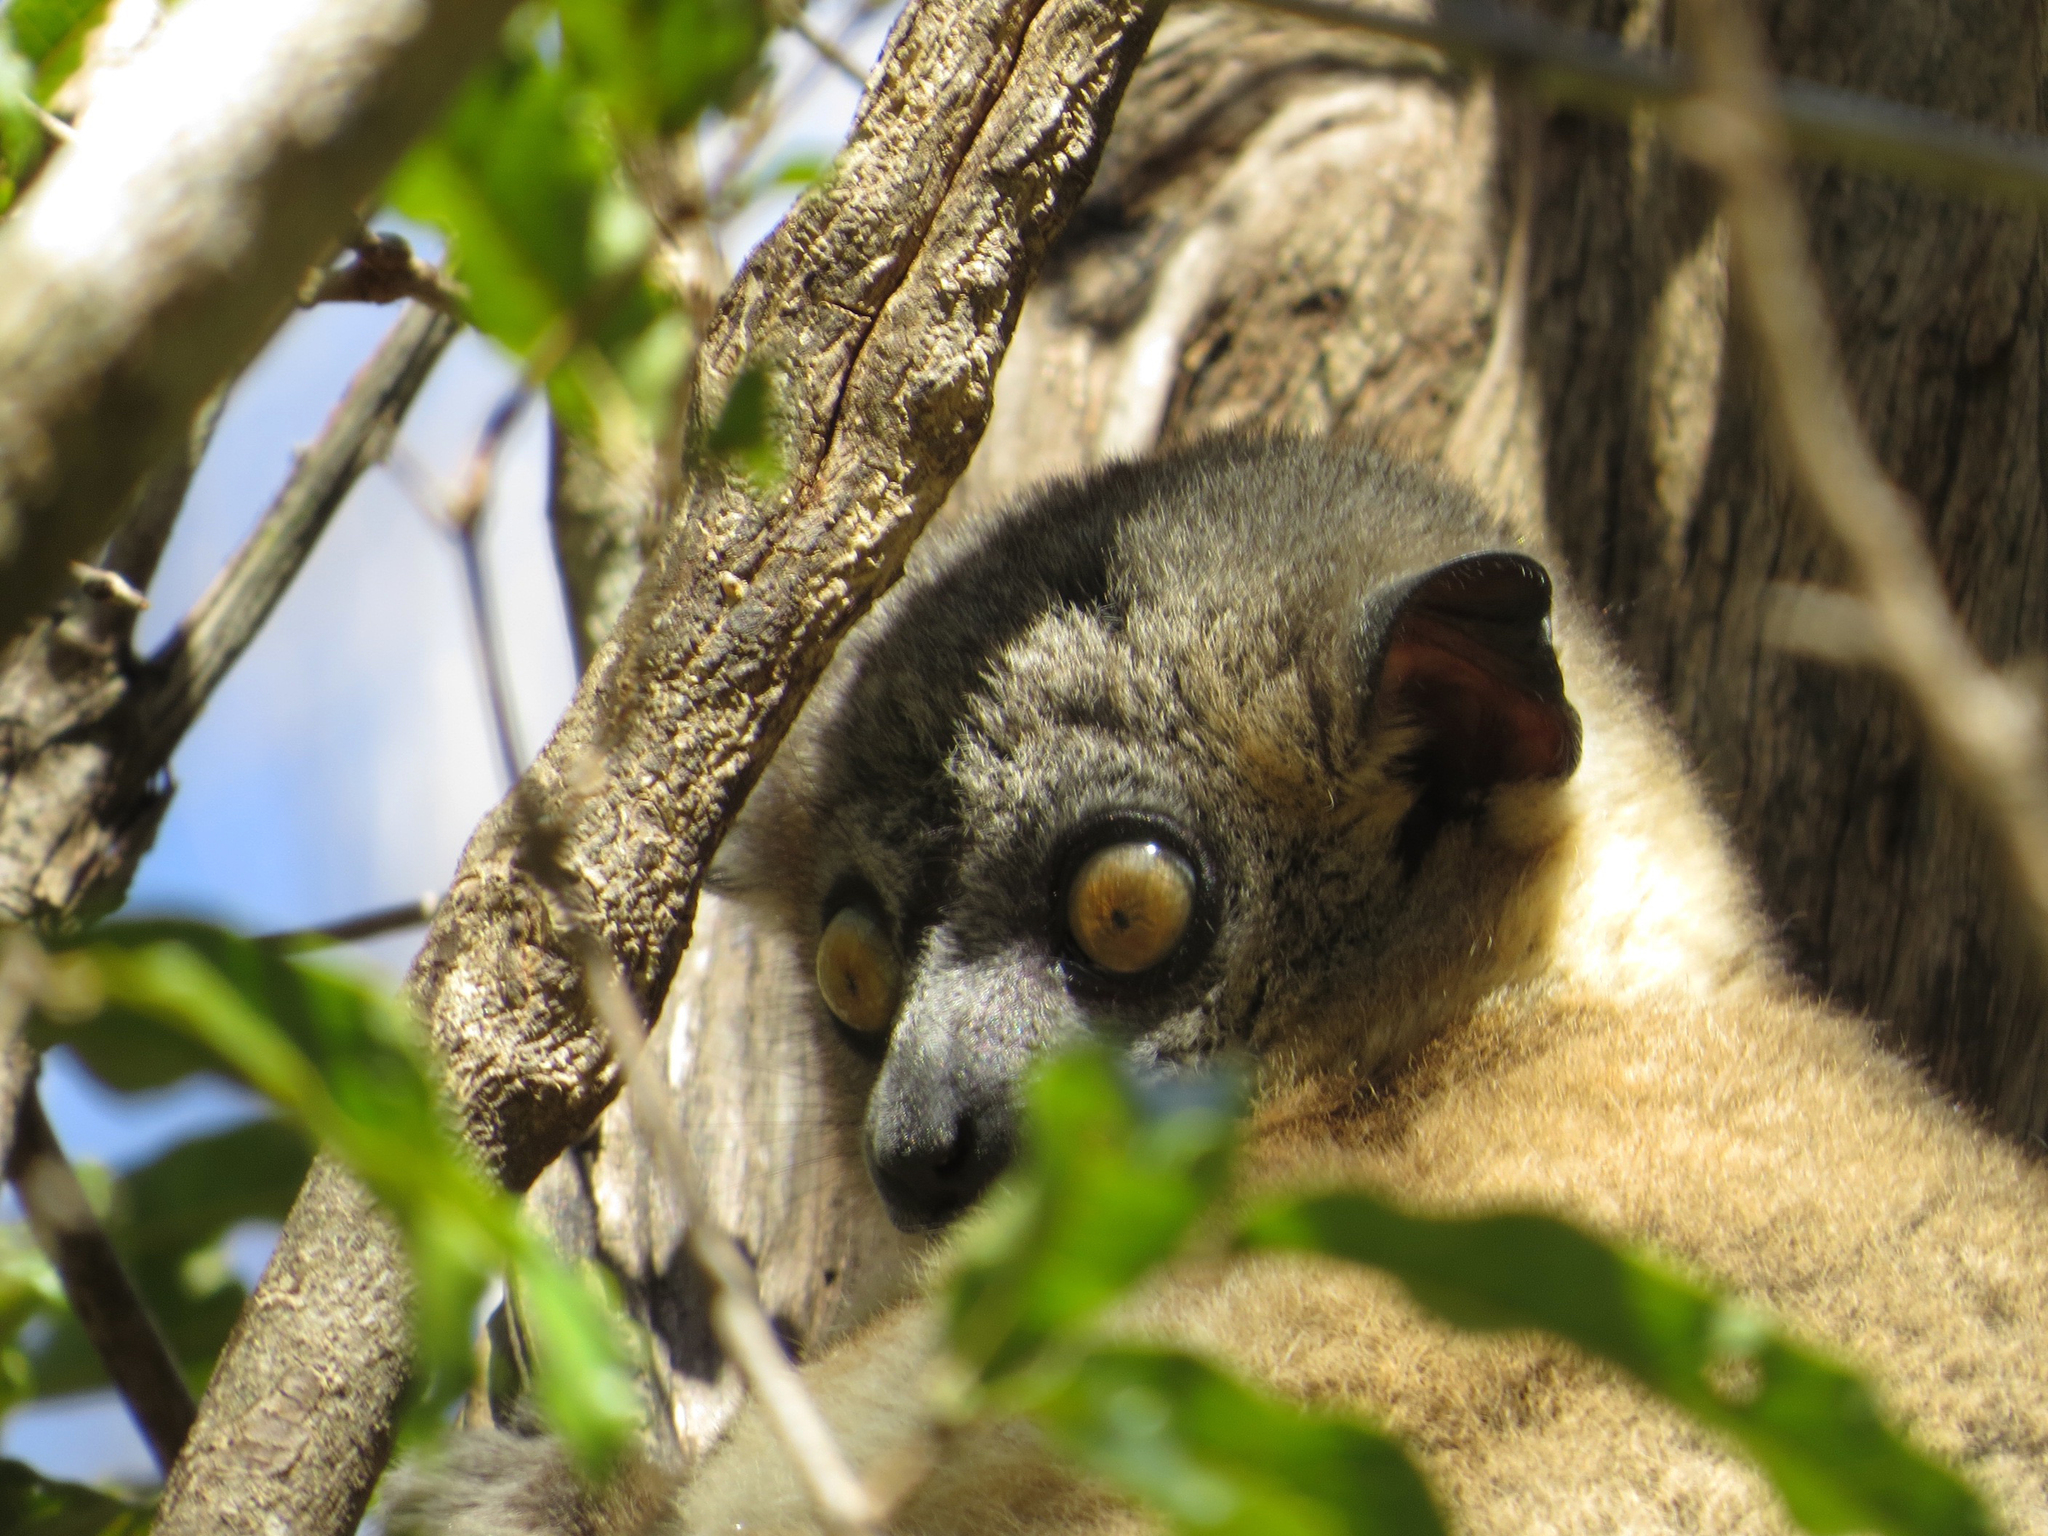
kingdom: Animalia
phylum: Chordata
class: Mammalia
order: Primates
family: Lepilemuridae
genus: Lepilemur
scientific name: Lepilemur hubbardi
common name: Zombitse sportive lemur
